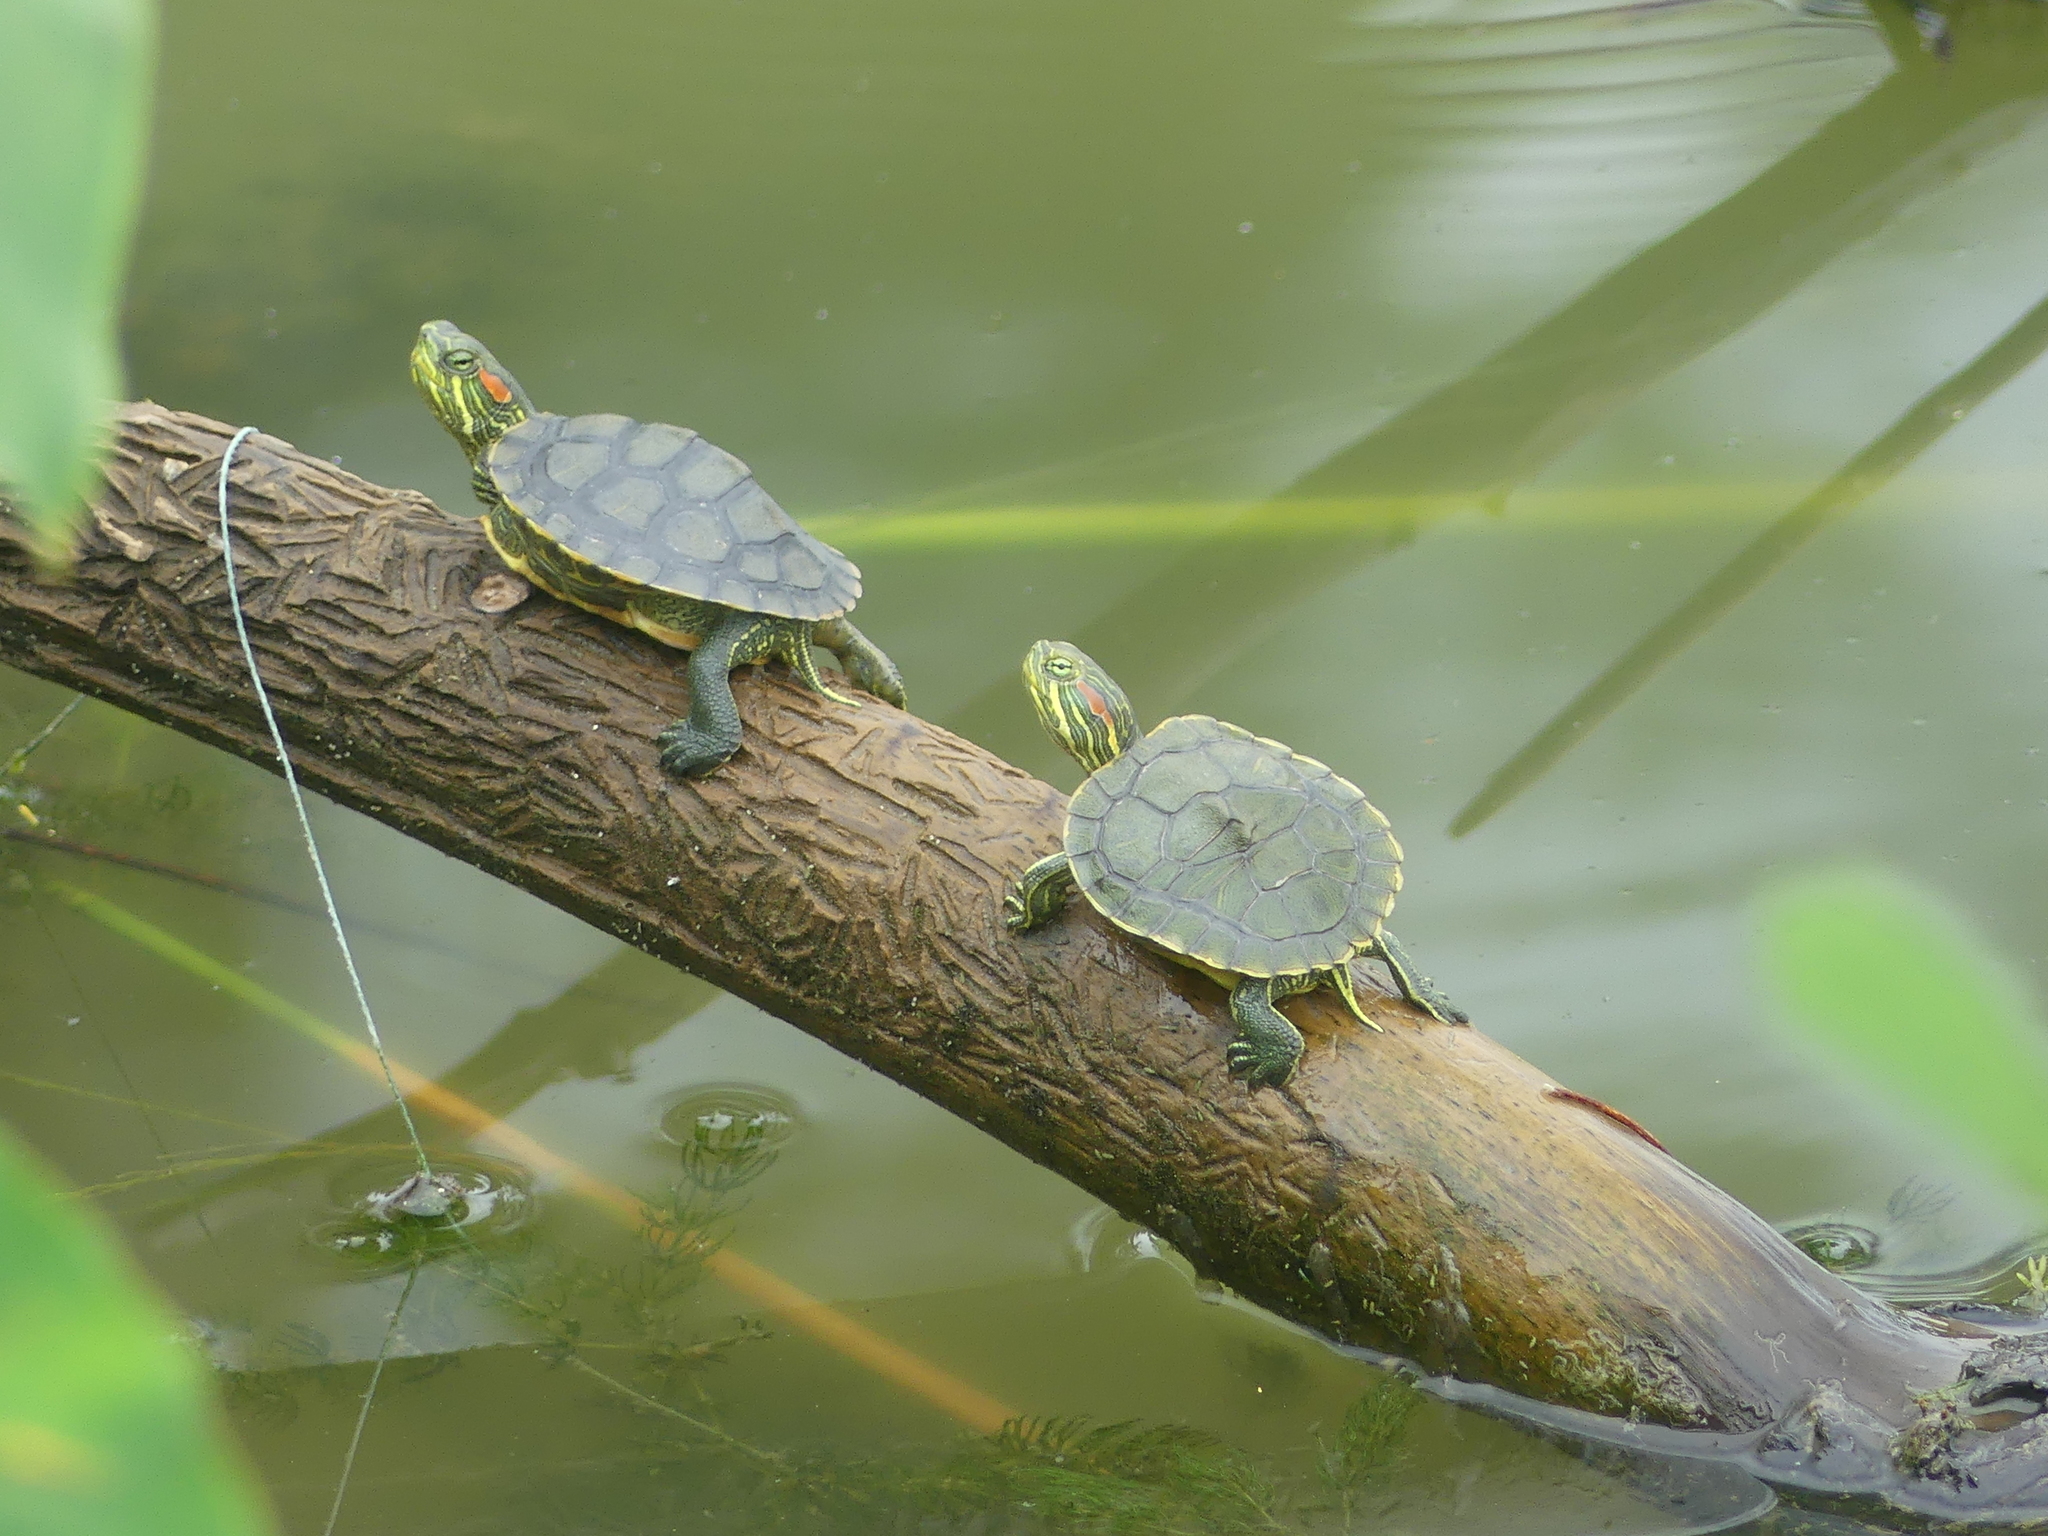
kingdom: Animalia
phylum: Chordata
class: Testudines
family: Emydidae
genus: Trachemys
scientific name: Trachemys scripta
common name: Slider
